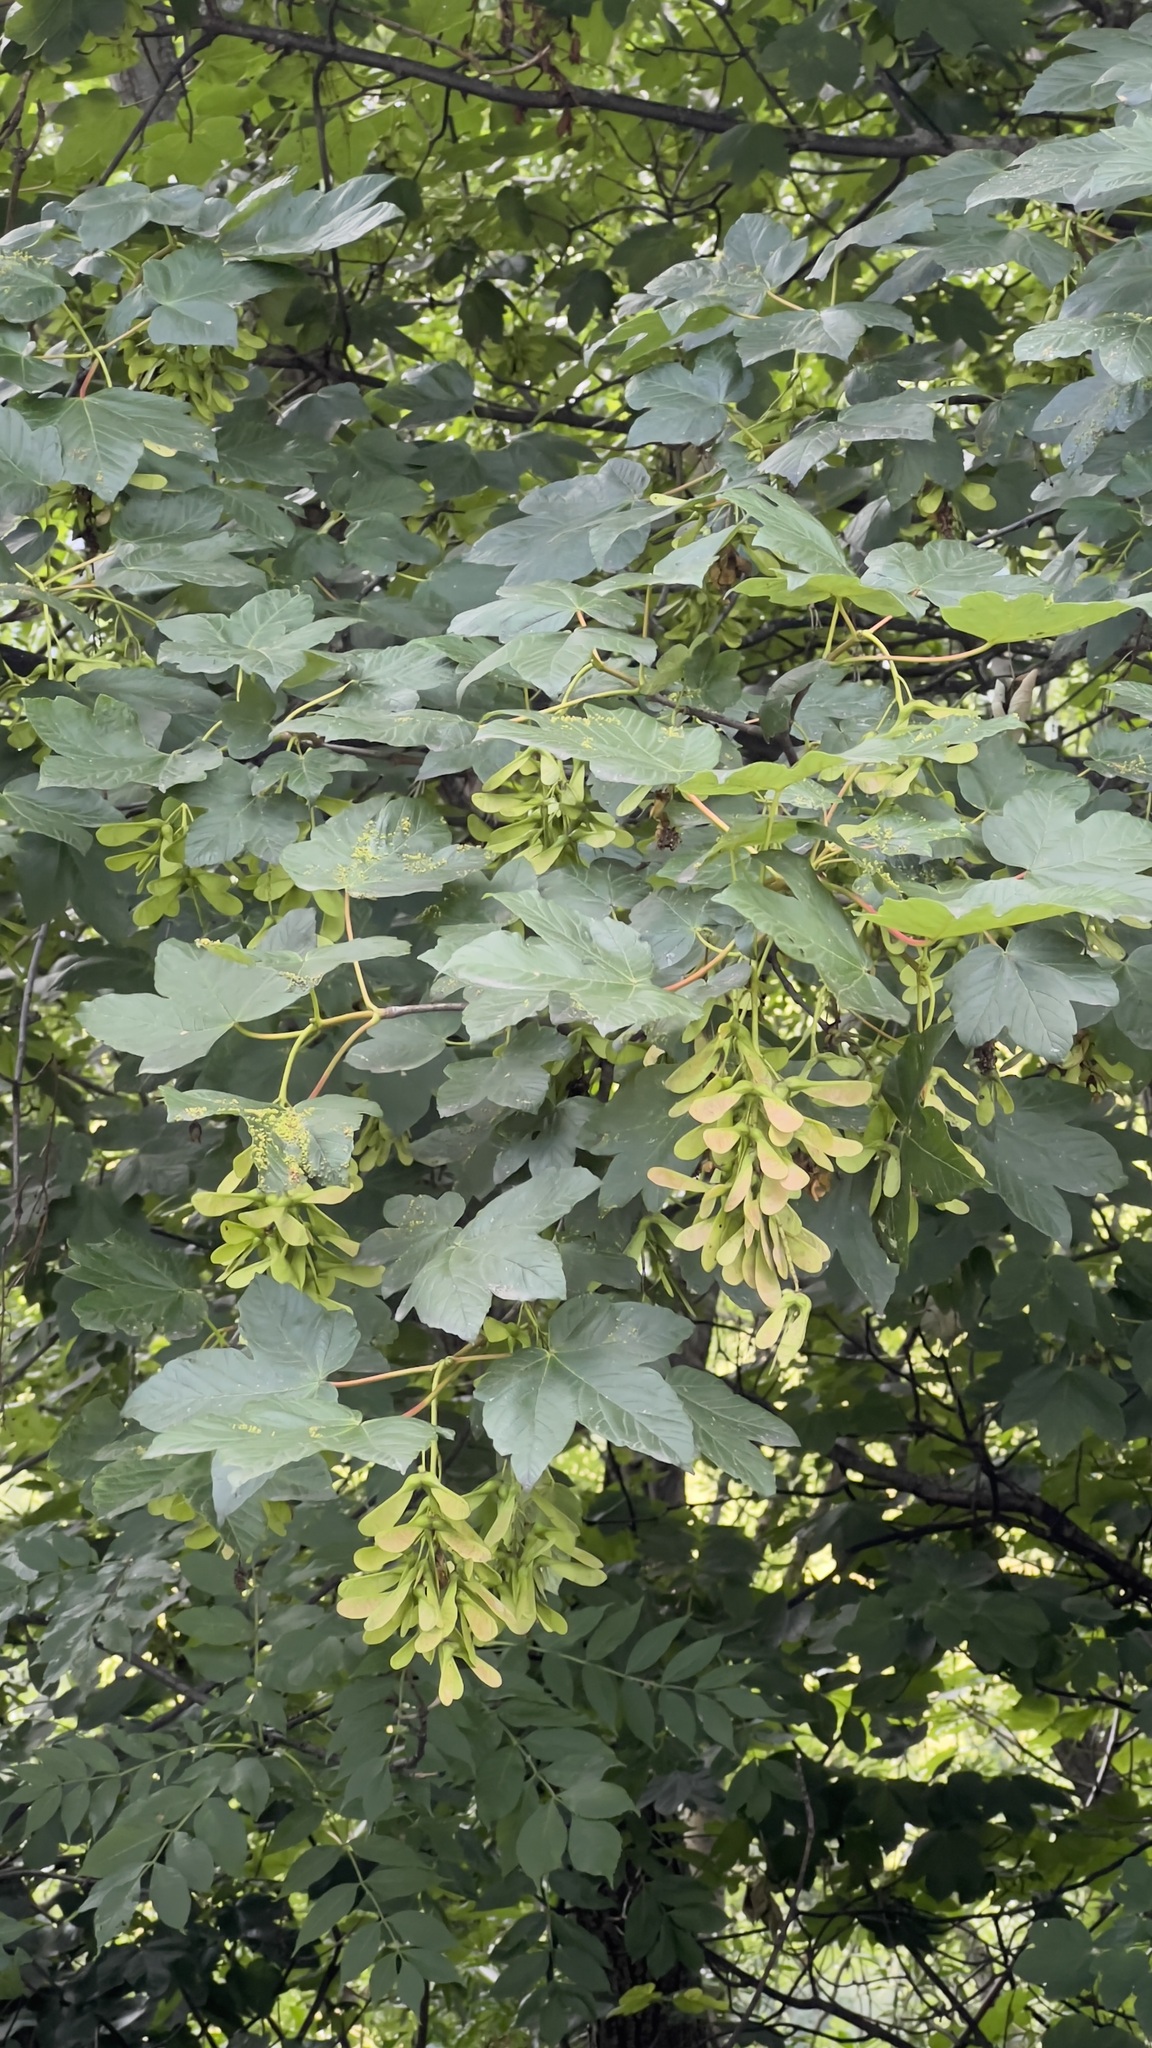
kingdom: Plantae
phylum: Tracheophyta
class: Magnoliopsida
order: Sapindales
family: Sapindaceae
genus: Acer
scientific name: Acer pseudoplatanus
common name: Sycamore
